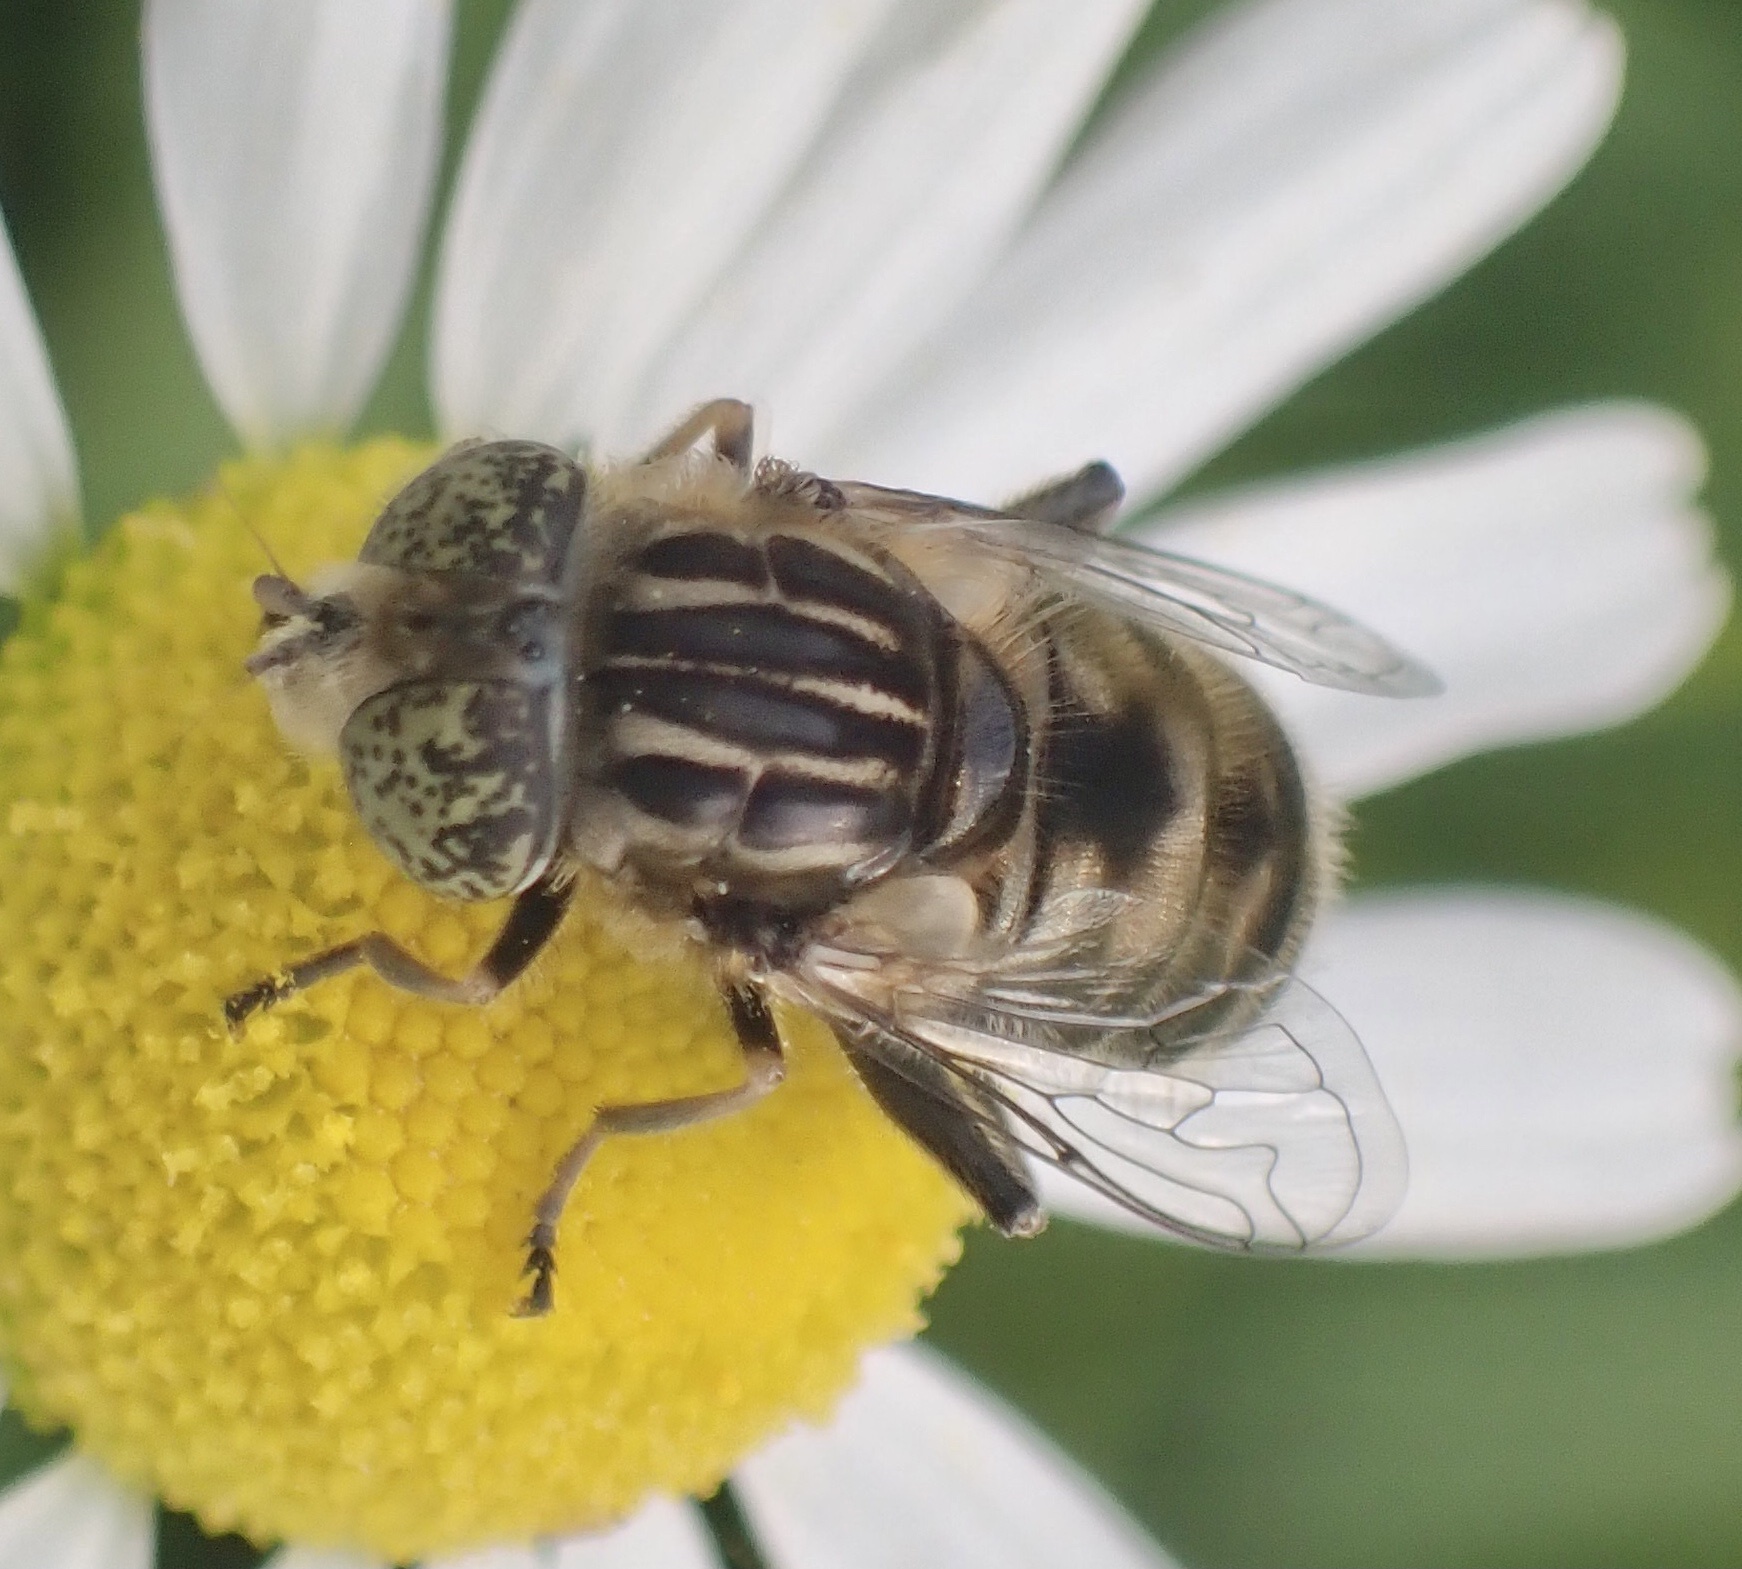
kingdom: Animalia
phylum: Arthropoda
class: Insecta
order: Diptera
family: Syrphidae
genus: Eristalinus
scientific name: Eristalinus sepulchralis
